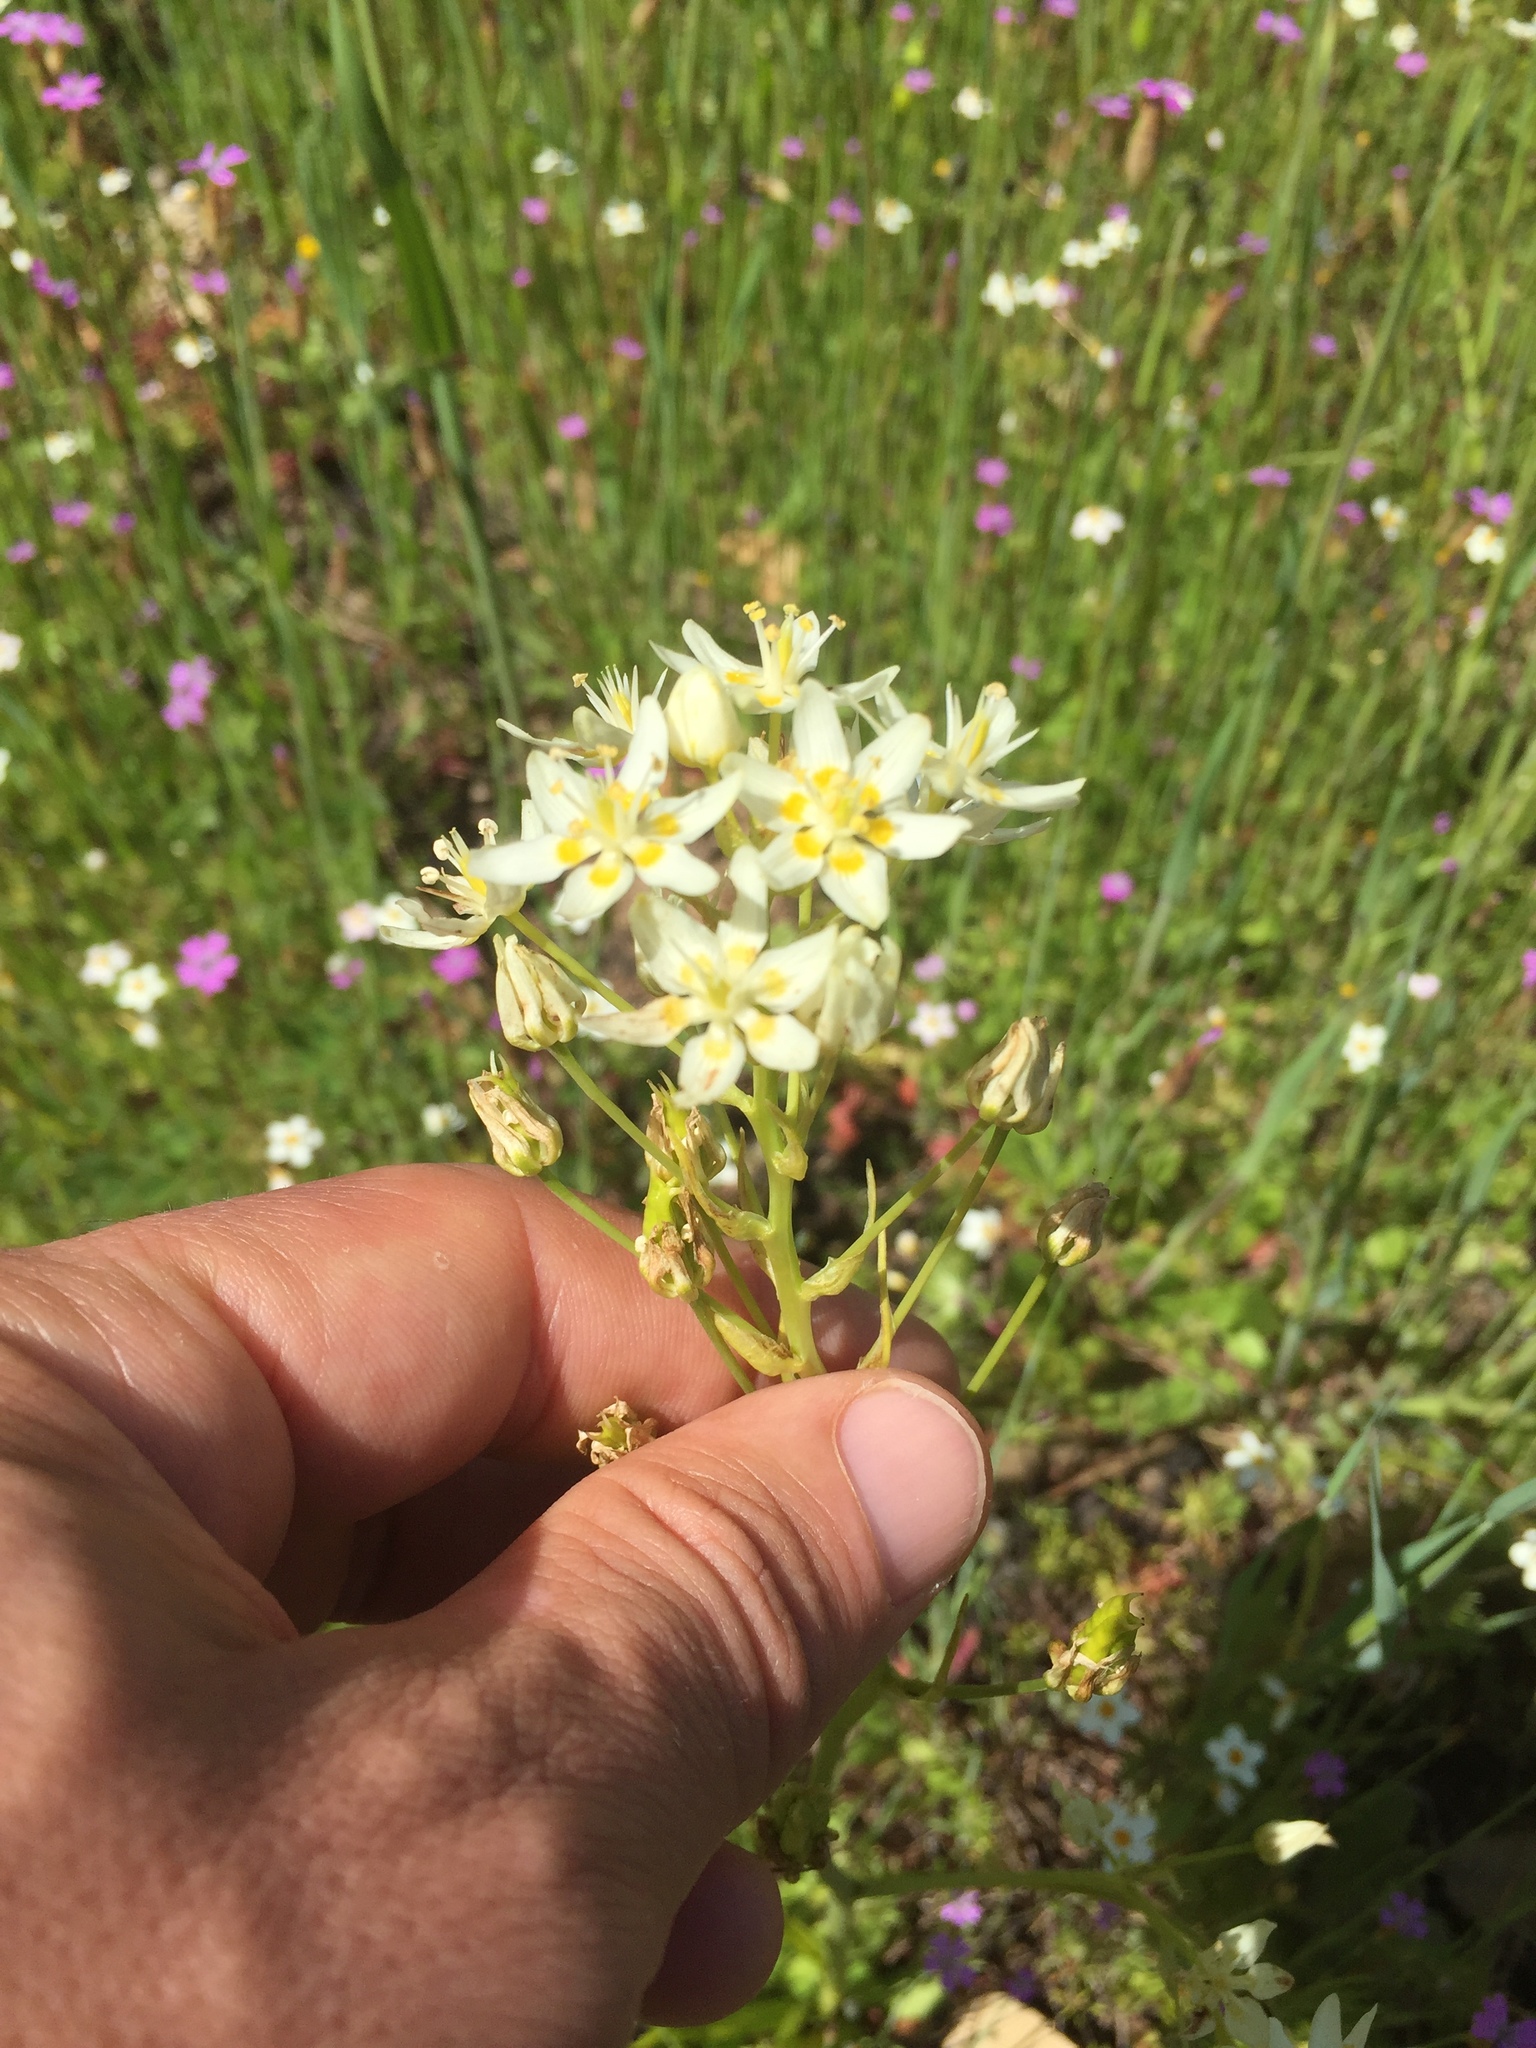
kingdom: Plantae
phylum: Tracheophyta
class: Liliopsida
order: Liliales
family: Melanthiaceae
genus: Toxicoscordion
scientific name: Toxicoscordion fremontii
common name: Fremont's death camas
